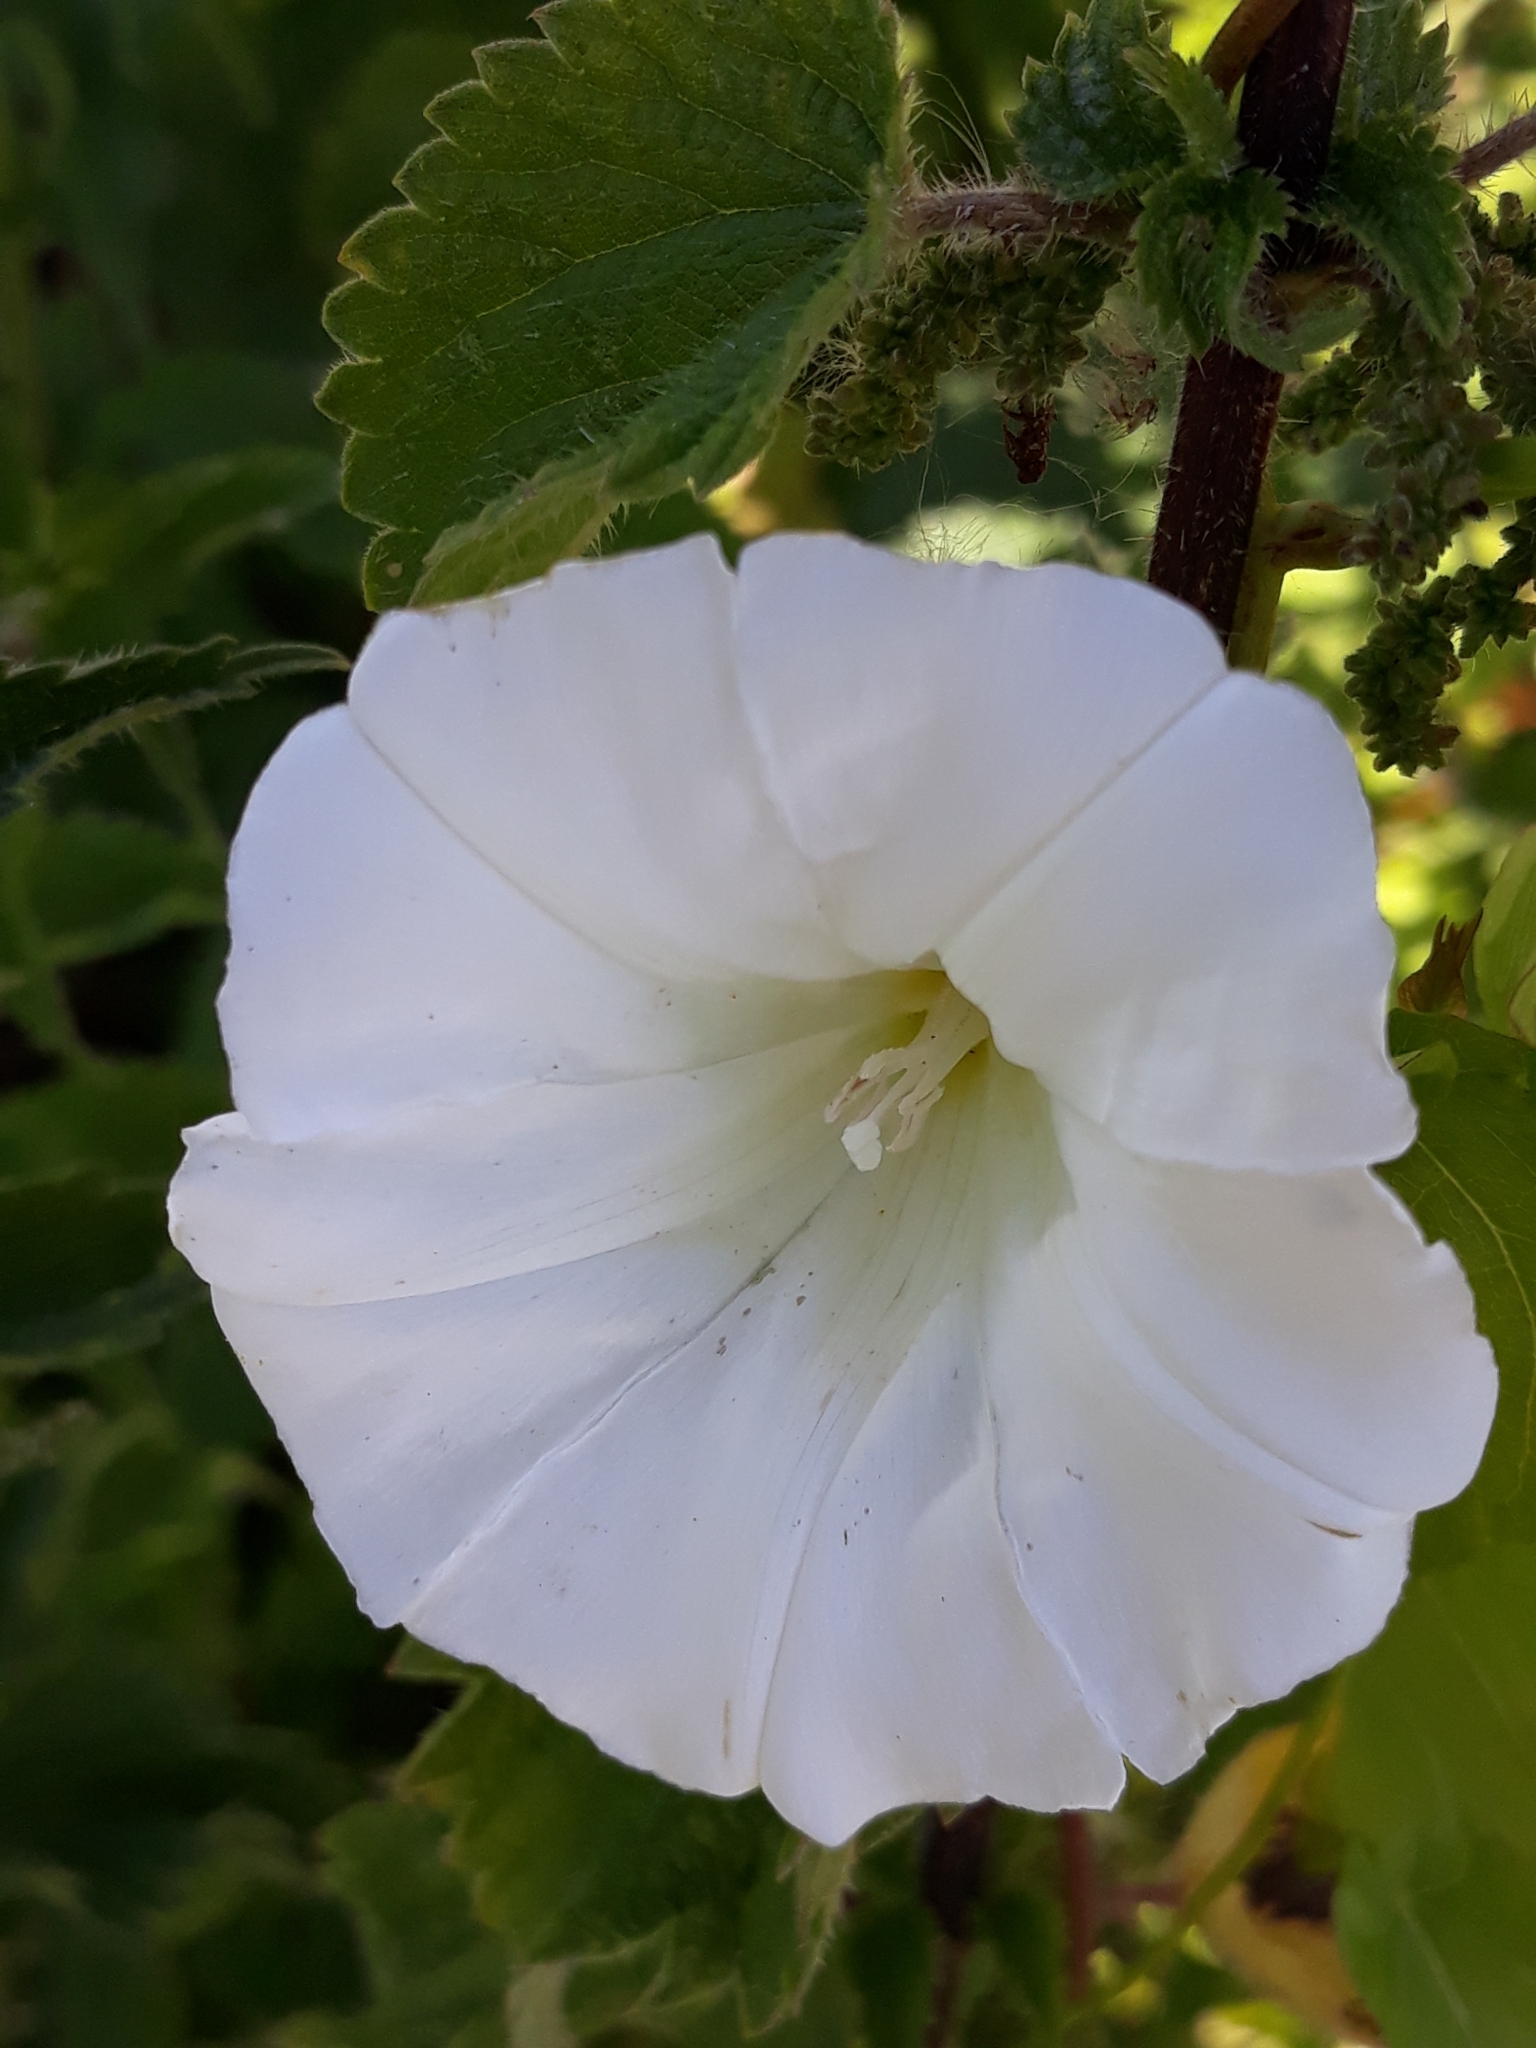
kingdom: Plantae
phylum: Tracheophyta
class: Magnoliopsida
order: Solanales
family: Convolvulaceae
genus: Calystegia
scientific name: Calystegia sepium
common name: Hedge bindweed
